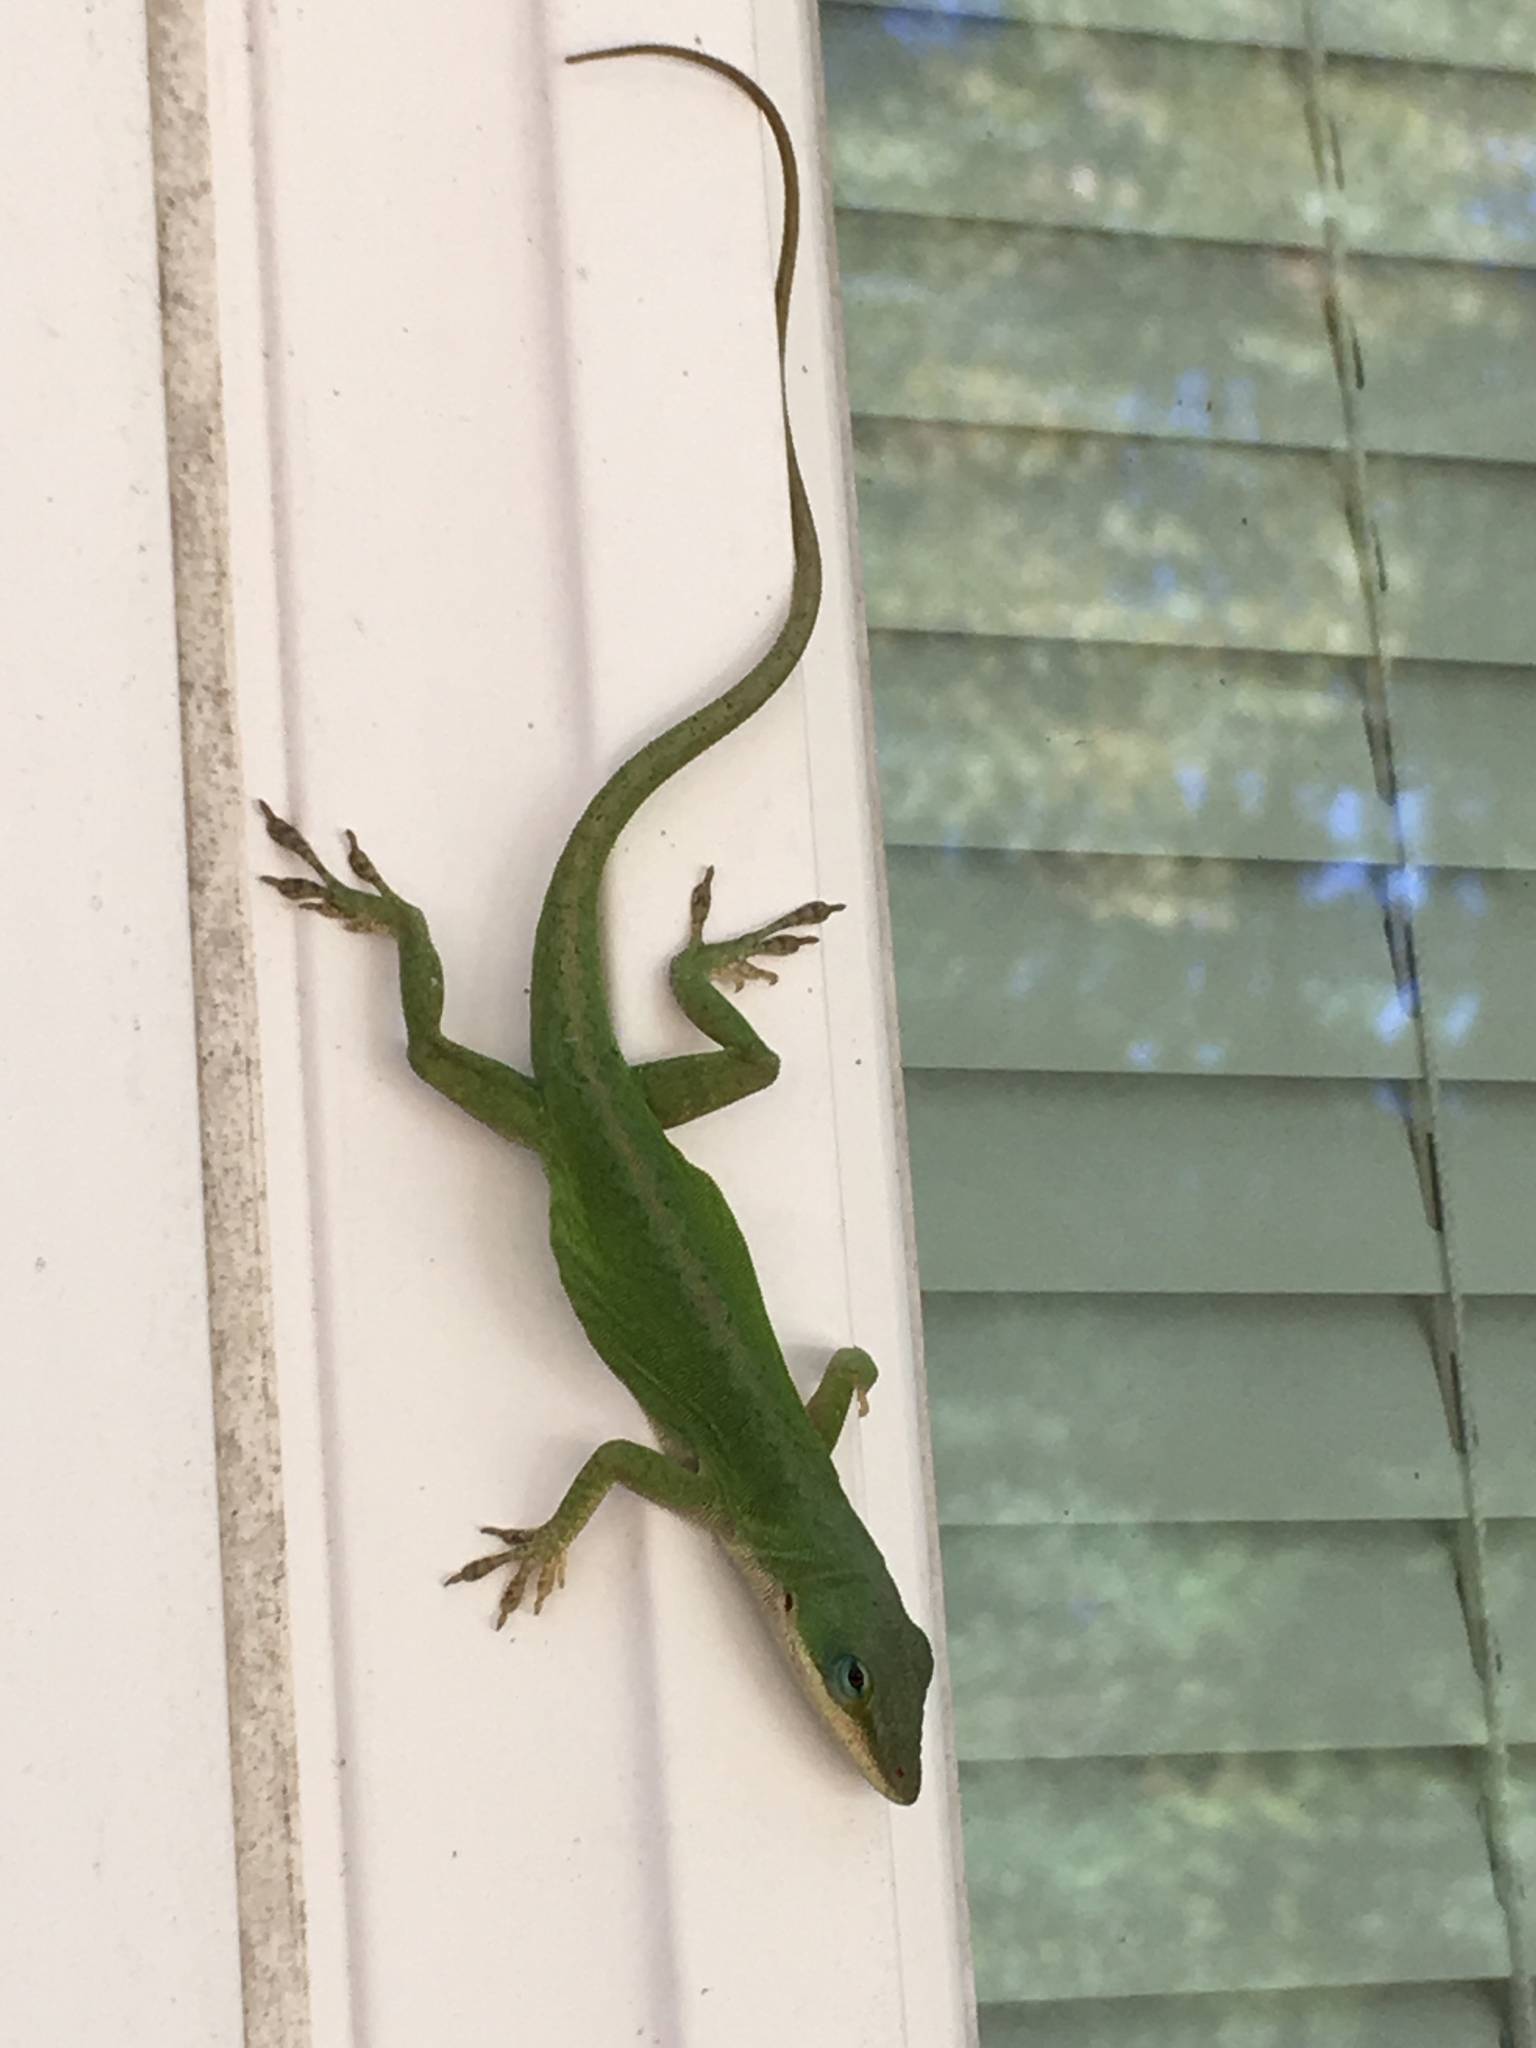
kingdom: Animalia
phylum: Chordata
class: Squamata
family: Dactyloidae
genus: Anolis
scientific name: Anolis carolinensis
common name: Green anole
